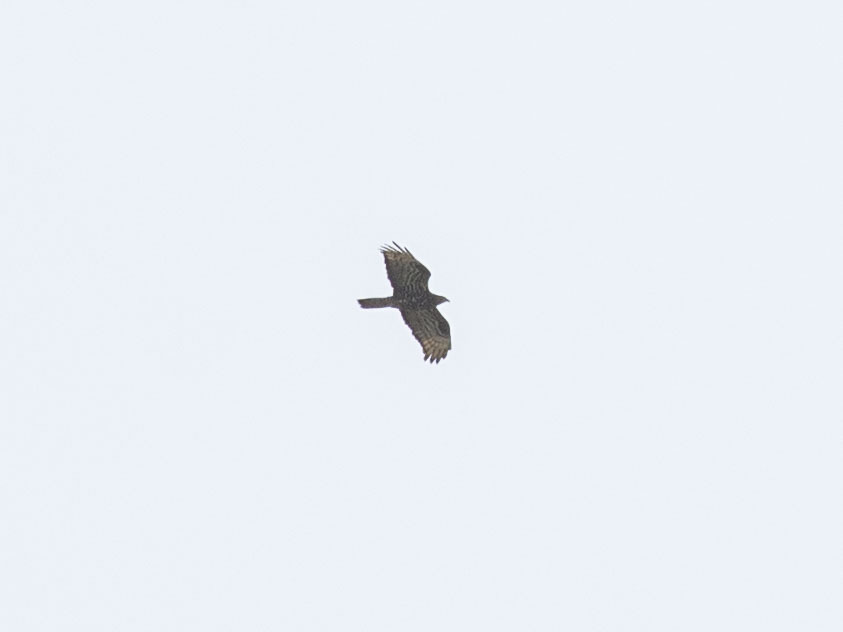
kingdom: Animalia
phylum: Chordata
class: Aves
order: Accipitriformes
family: Accipitridae
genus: Pernis
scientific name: Pernis apivorus
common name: European honey buzzard
